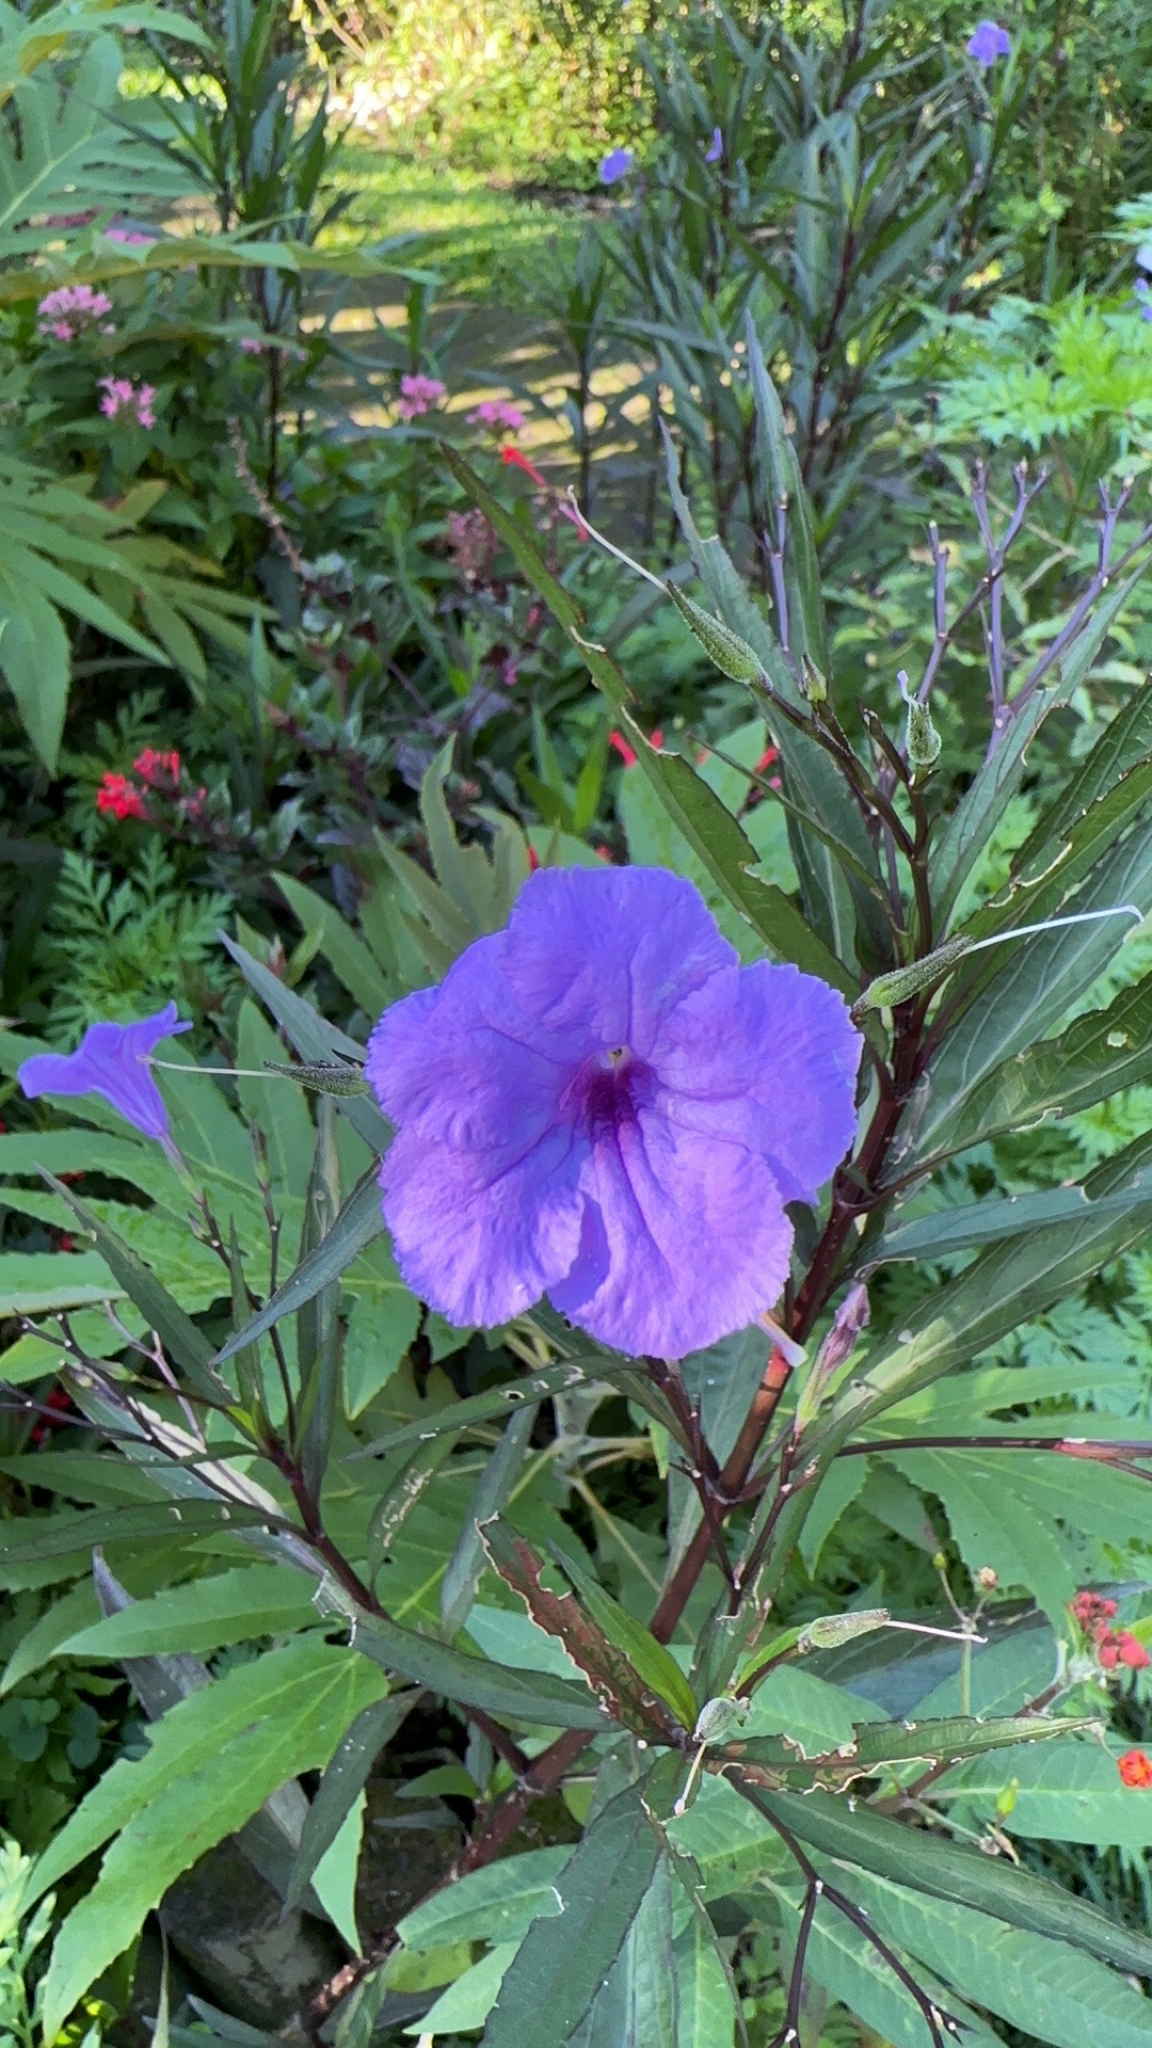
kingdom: Plantae
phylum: Tracheophyta
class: Magnoliopsida
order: Lamiales
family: Acanthaceae
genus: Ruellia
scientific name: Ruellia simplex
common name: Softseed wild petunia
